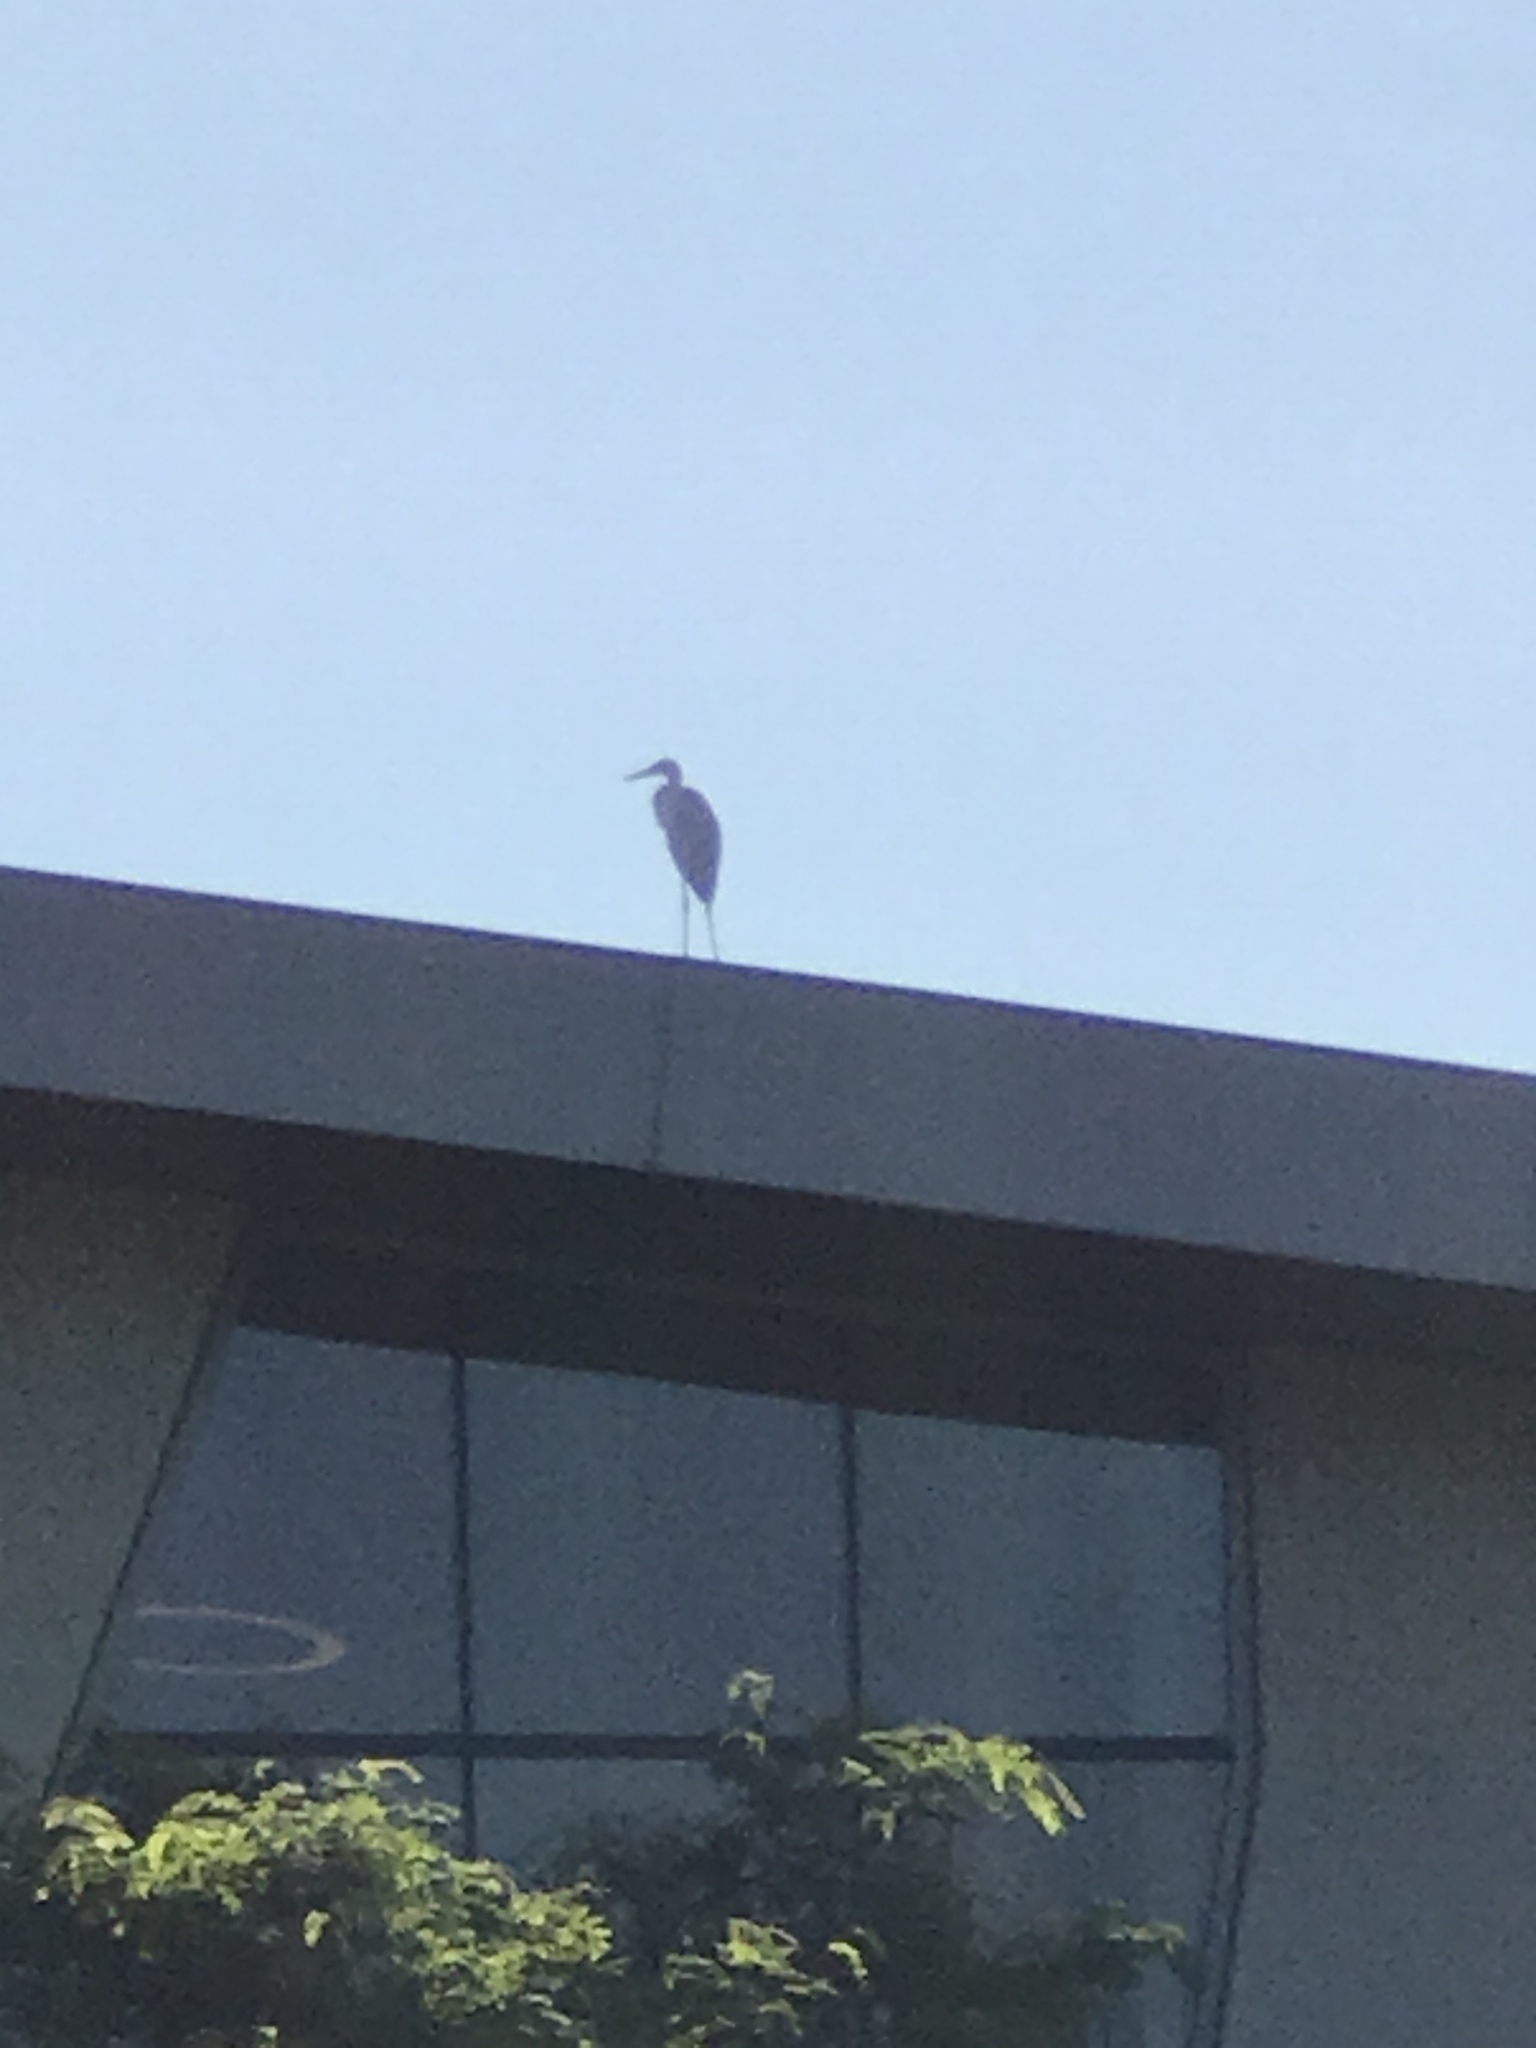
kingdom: Animalia
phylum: Chordata
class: Aves
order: Pelecaniformes
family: Ardeidae
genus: Ardea
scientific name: Ardea alba
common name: Great egret
